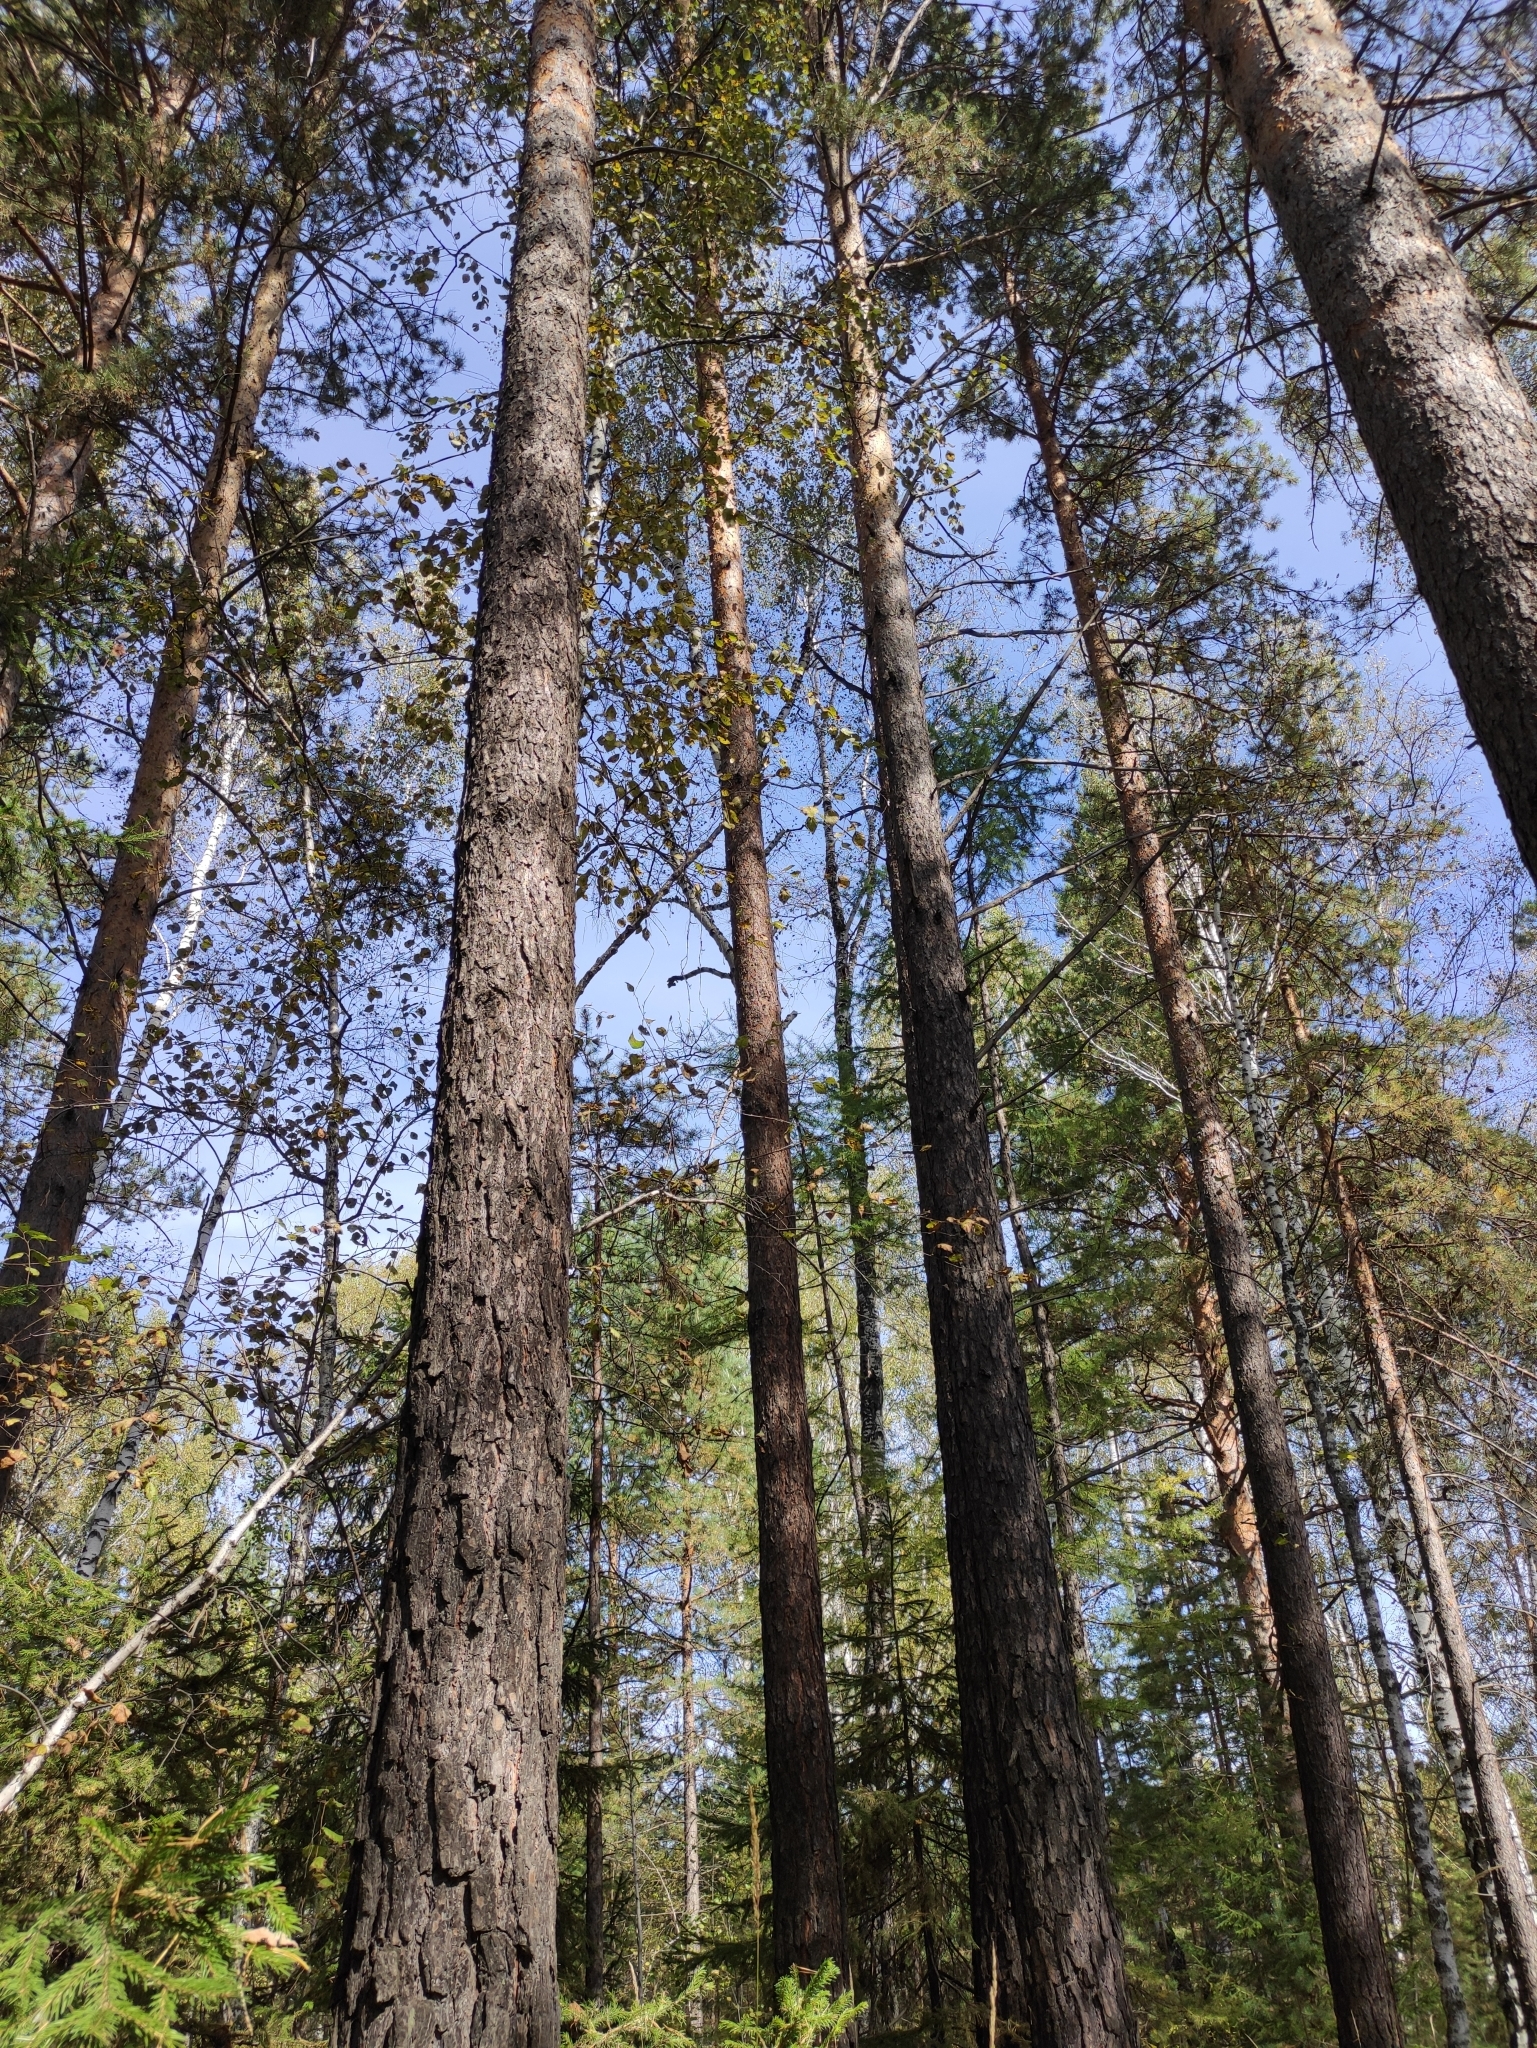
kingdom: Plantae
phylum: Tracheophyta
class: Pinopsida
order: Pinales
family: Pinaceae
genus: Pinus
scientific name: Pinus sylvestris
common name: Scots pine
